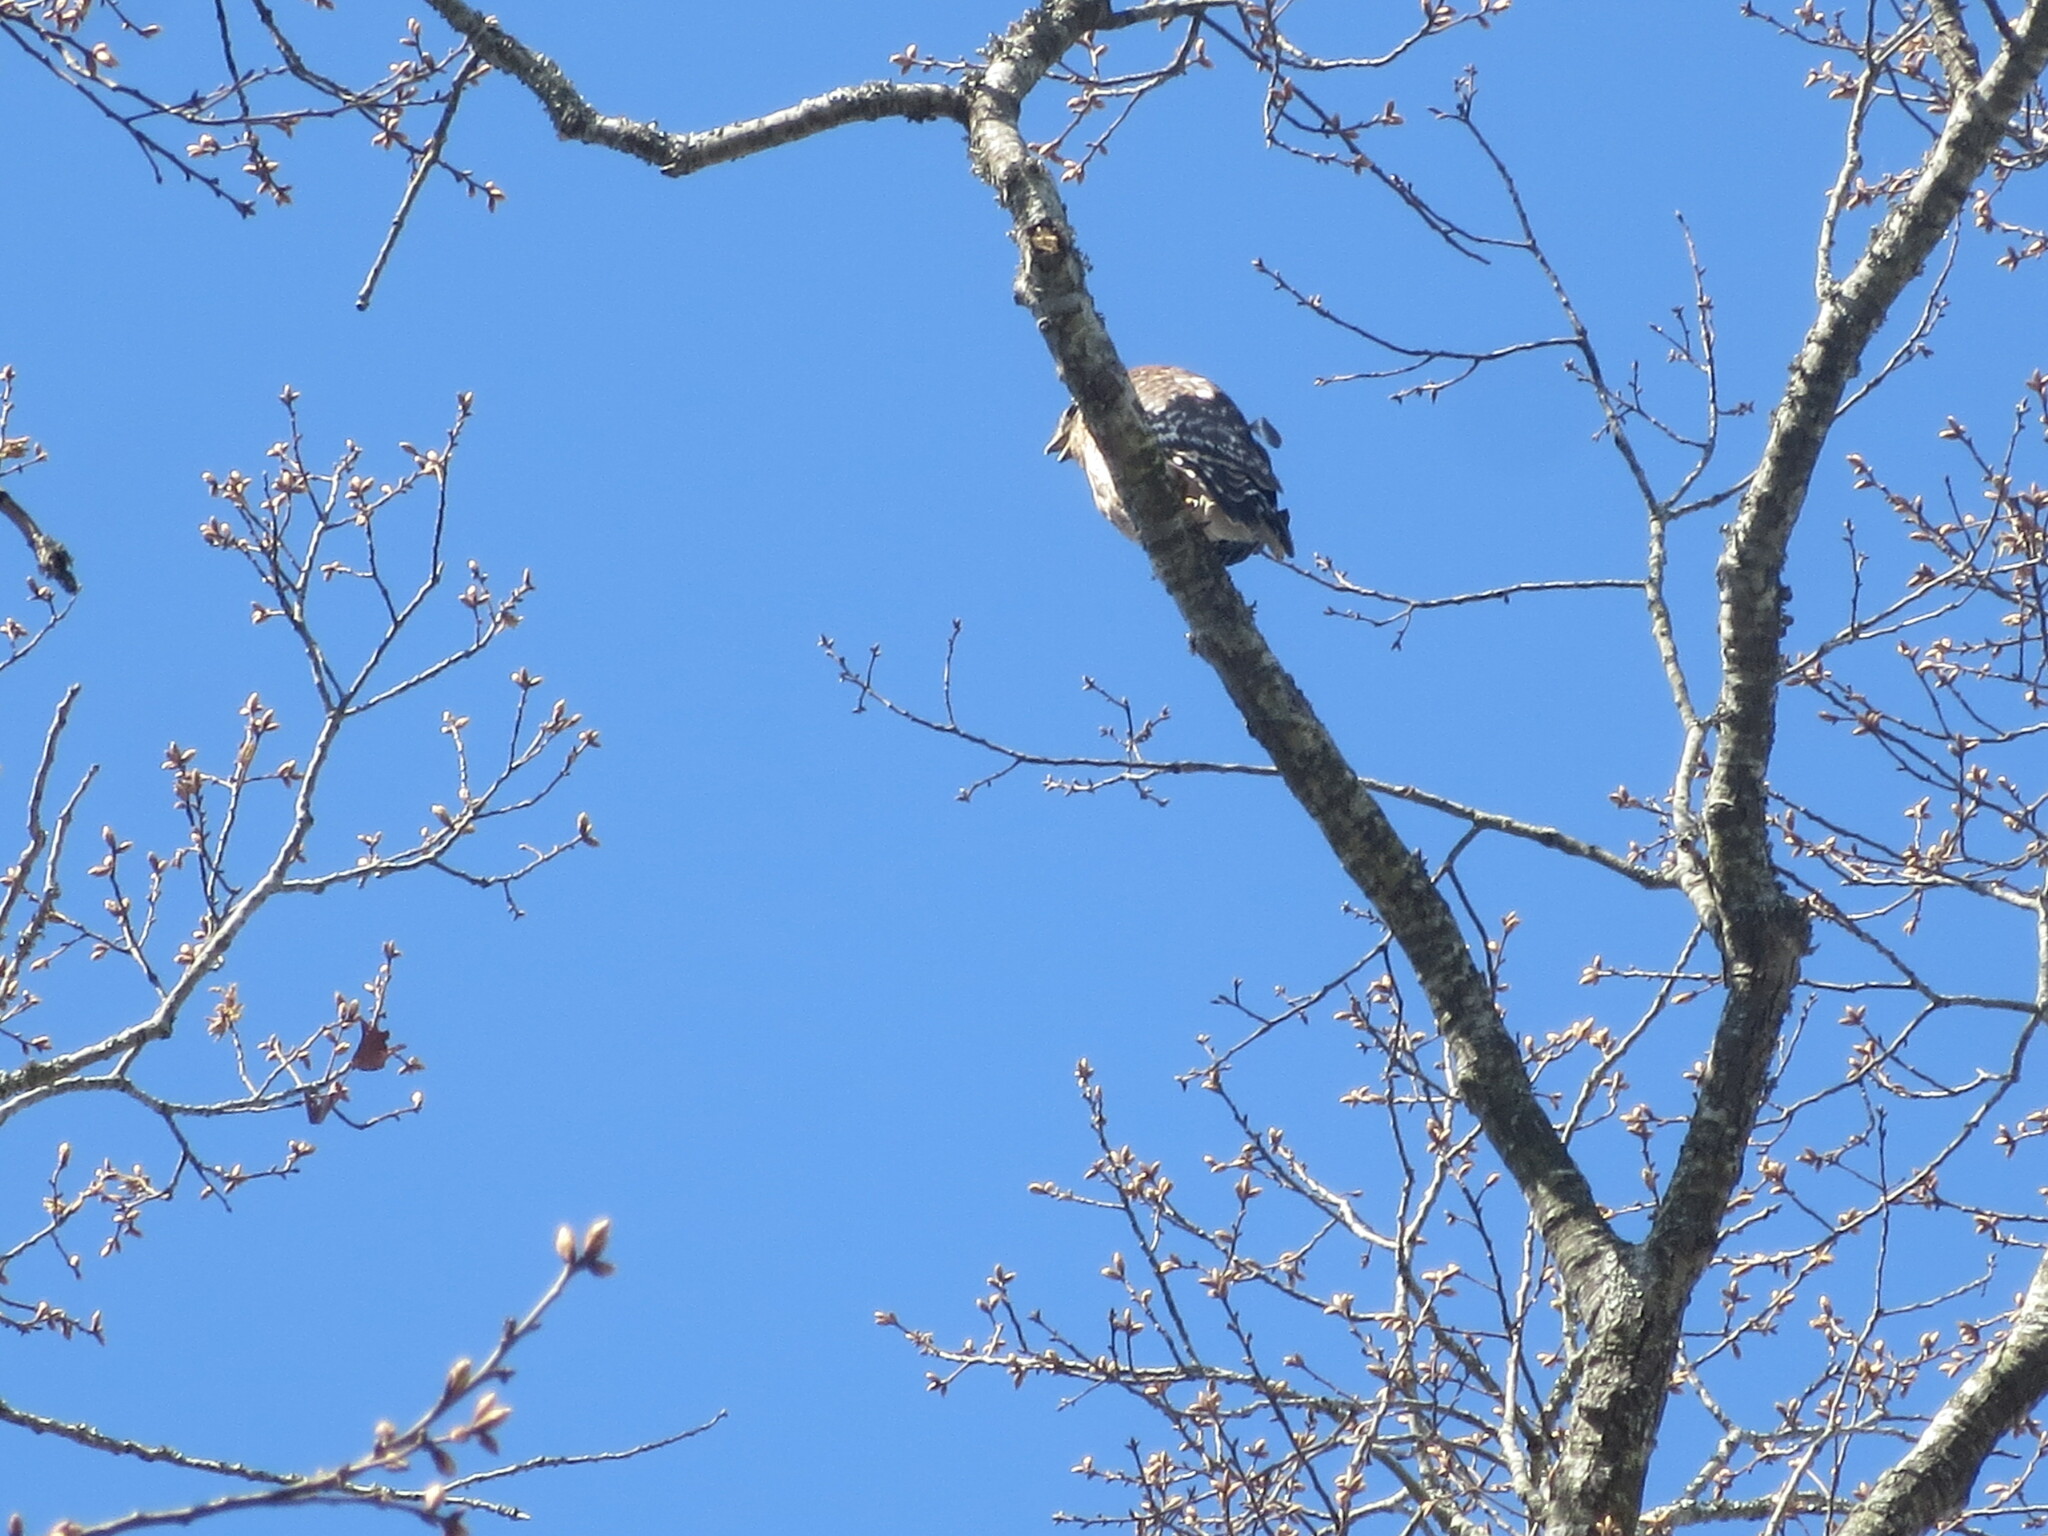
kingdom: Animalia
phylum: Chordata
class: Aves
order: Accipitriformes
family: Accipitridae
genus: Buteo
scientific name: Buteo lineatus
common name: Red-shouldered hawk
